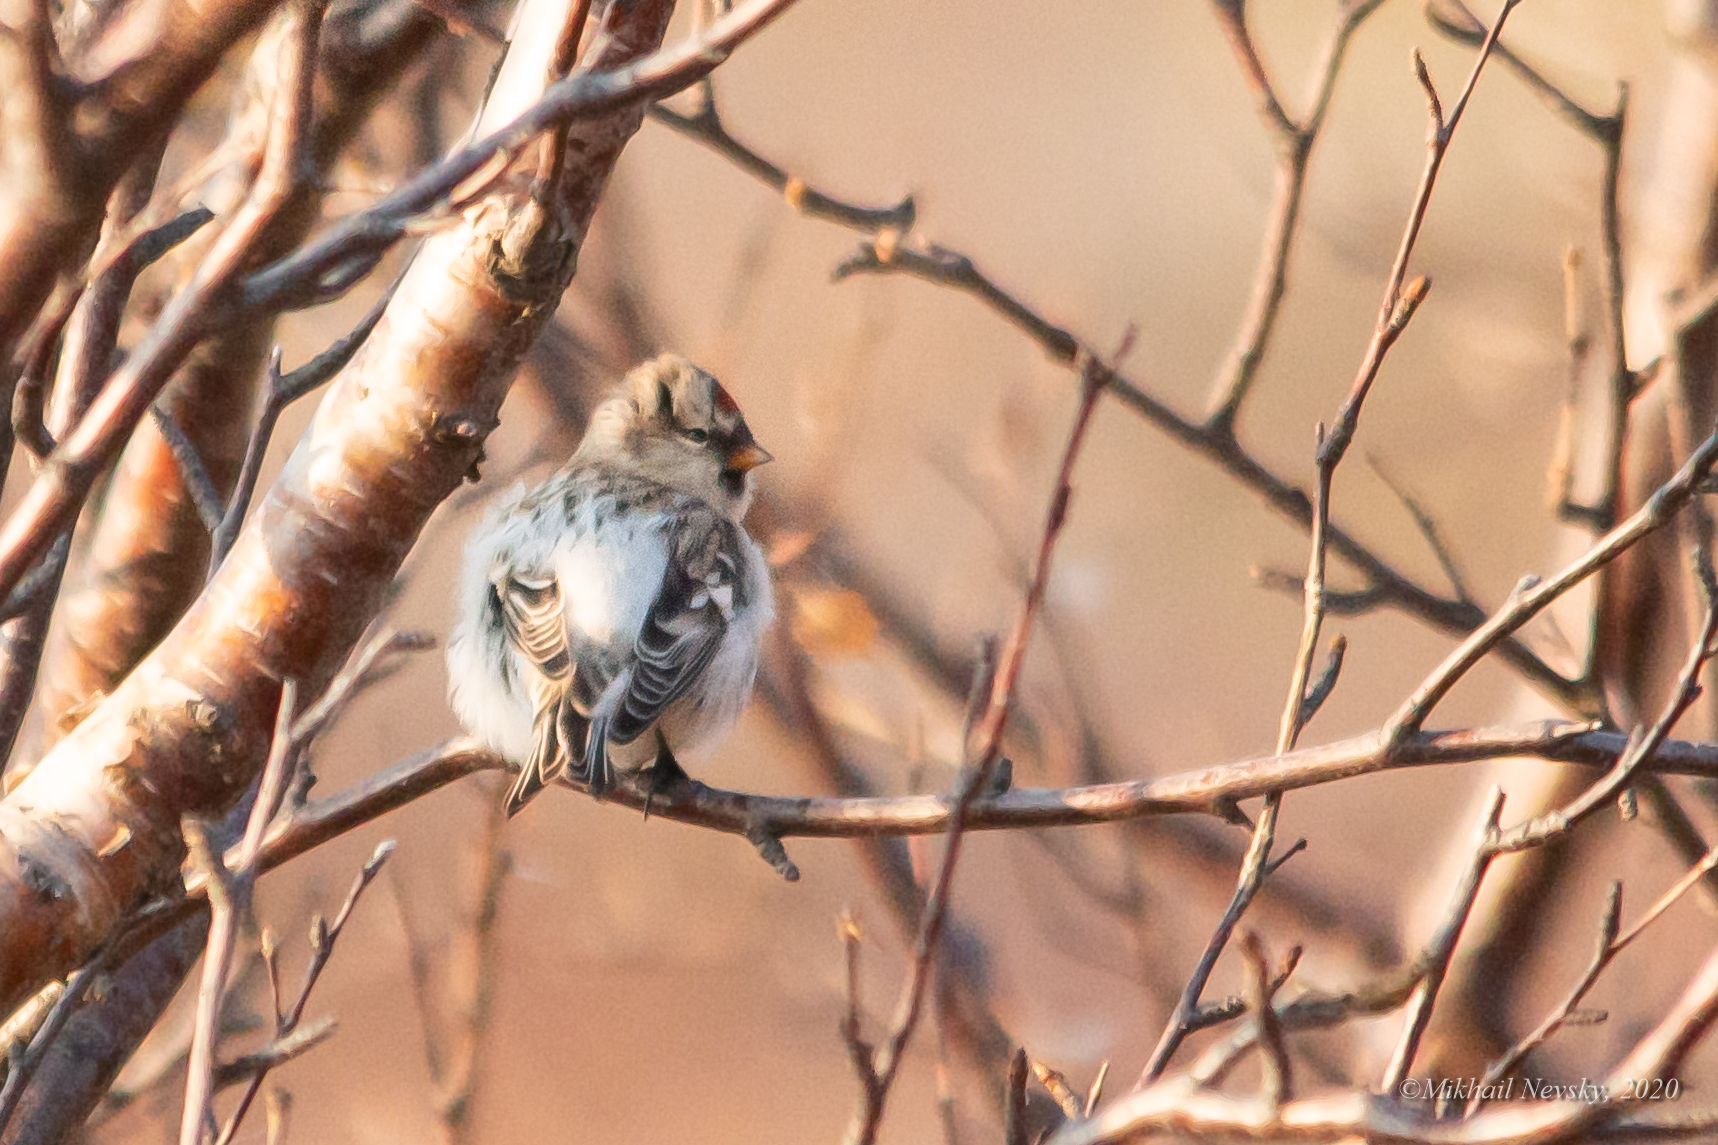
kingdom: Animalia
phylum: Chordata
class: Aves
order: Passeriformes
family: Fringillidae
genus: Acanthis
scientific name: Acanthis hornemanni
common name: Arctic redpoll
